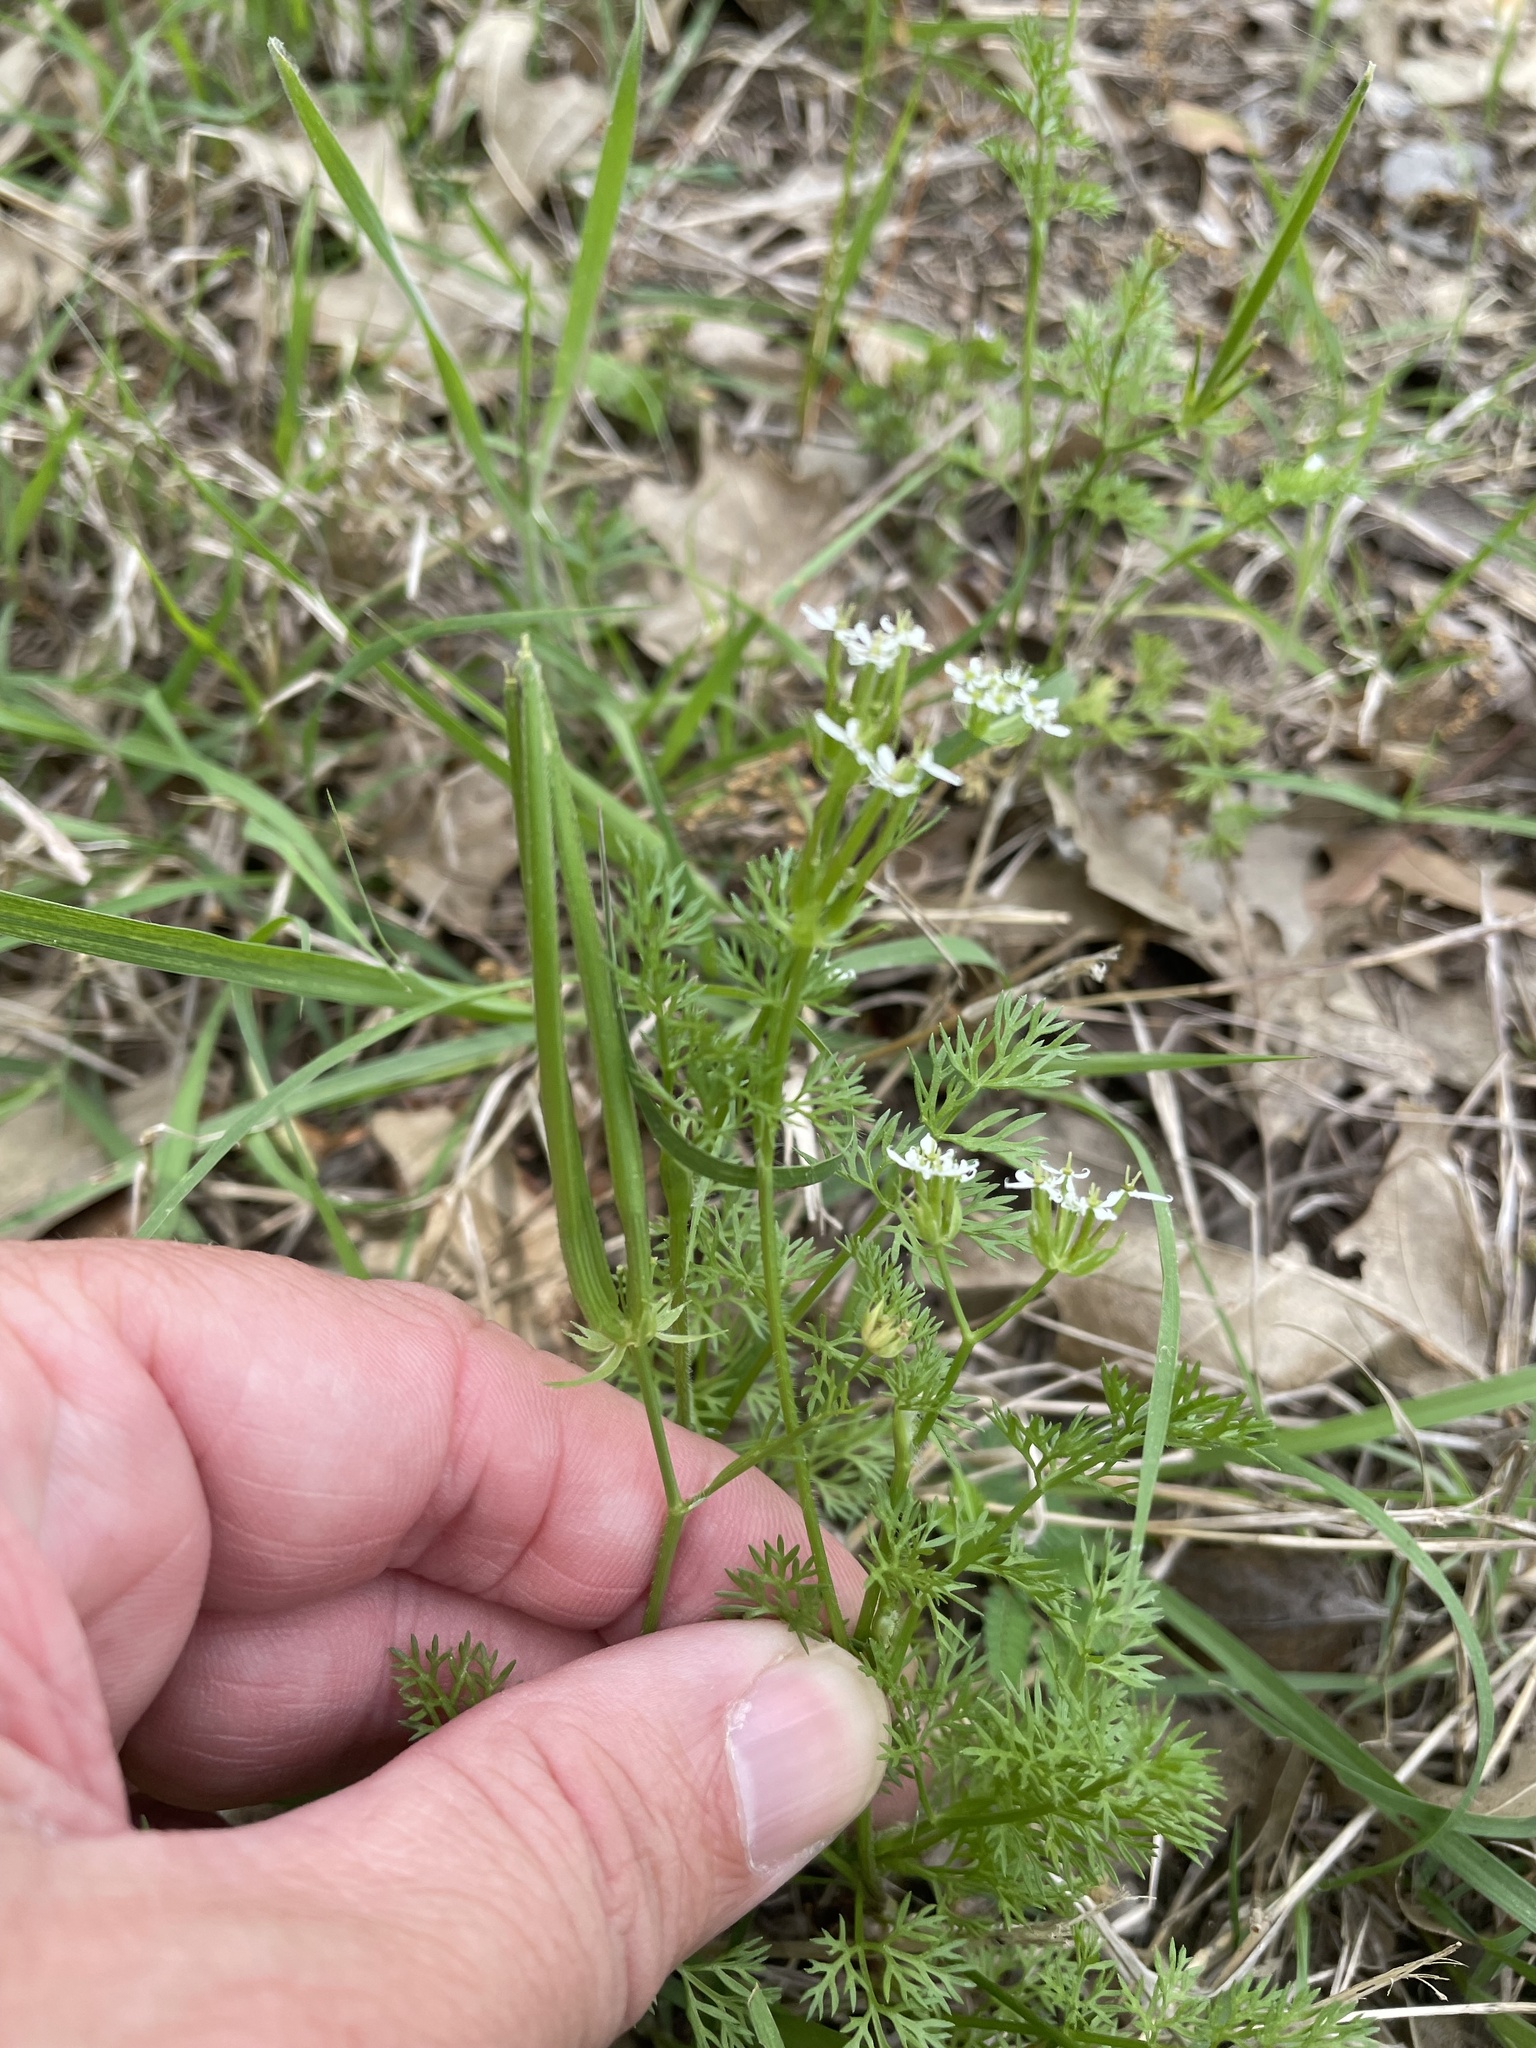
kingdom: Plantae
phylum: Tracheophyta
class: Magnoliopsida
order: Apiales
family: Apiaceae
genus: Scandix
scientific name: Scandix pecten-veneris
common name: Shepherd's-needle
